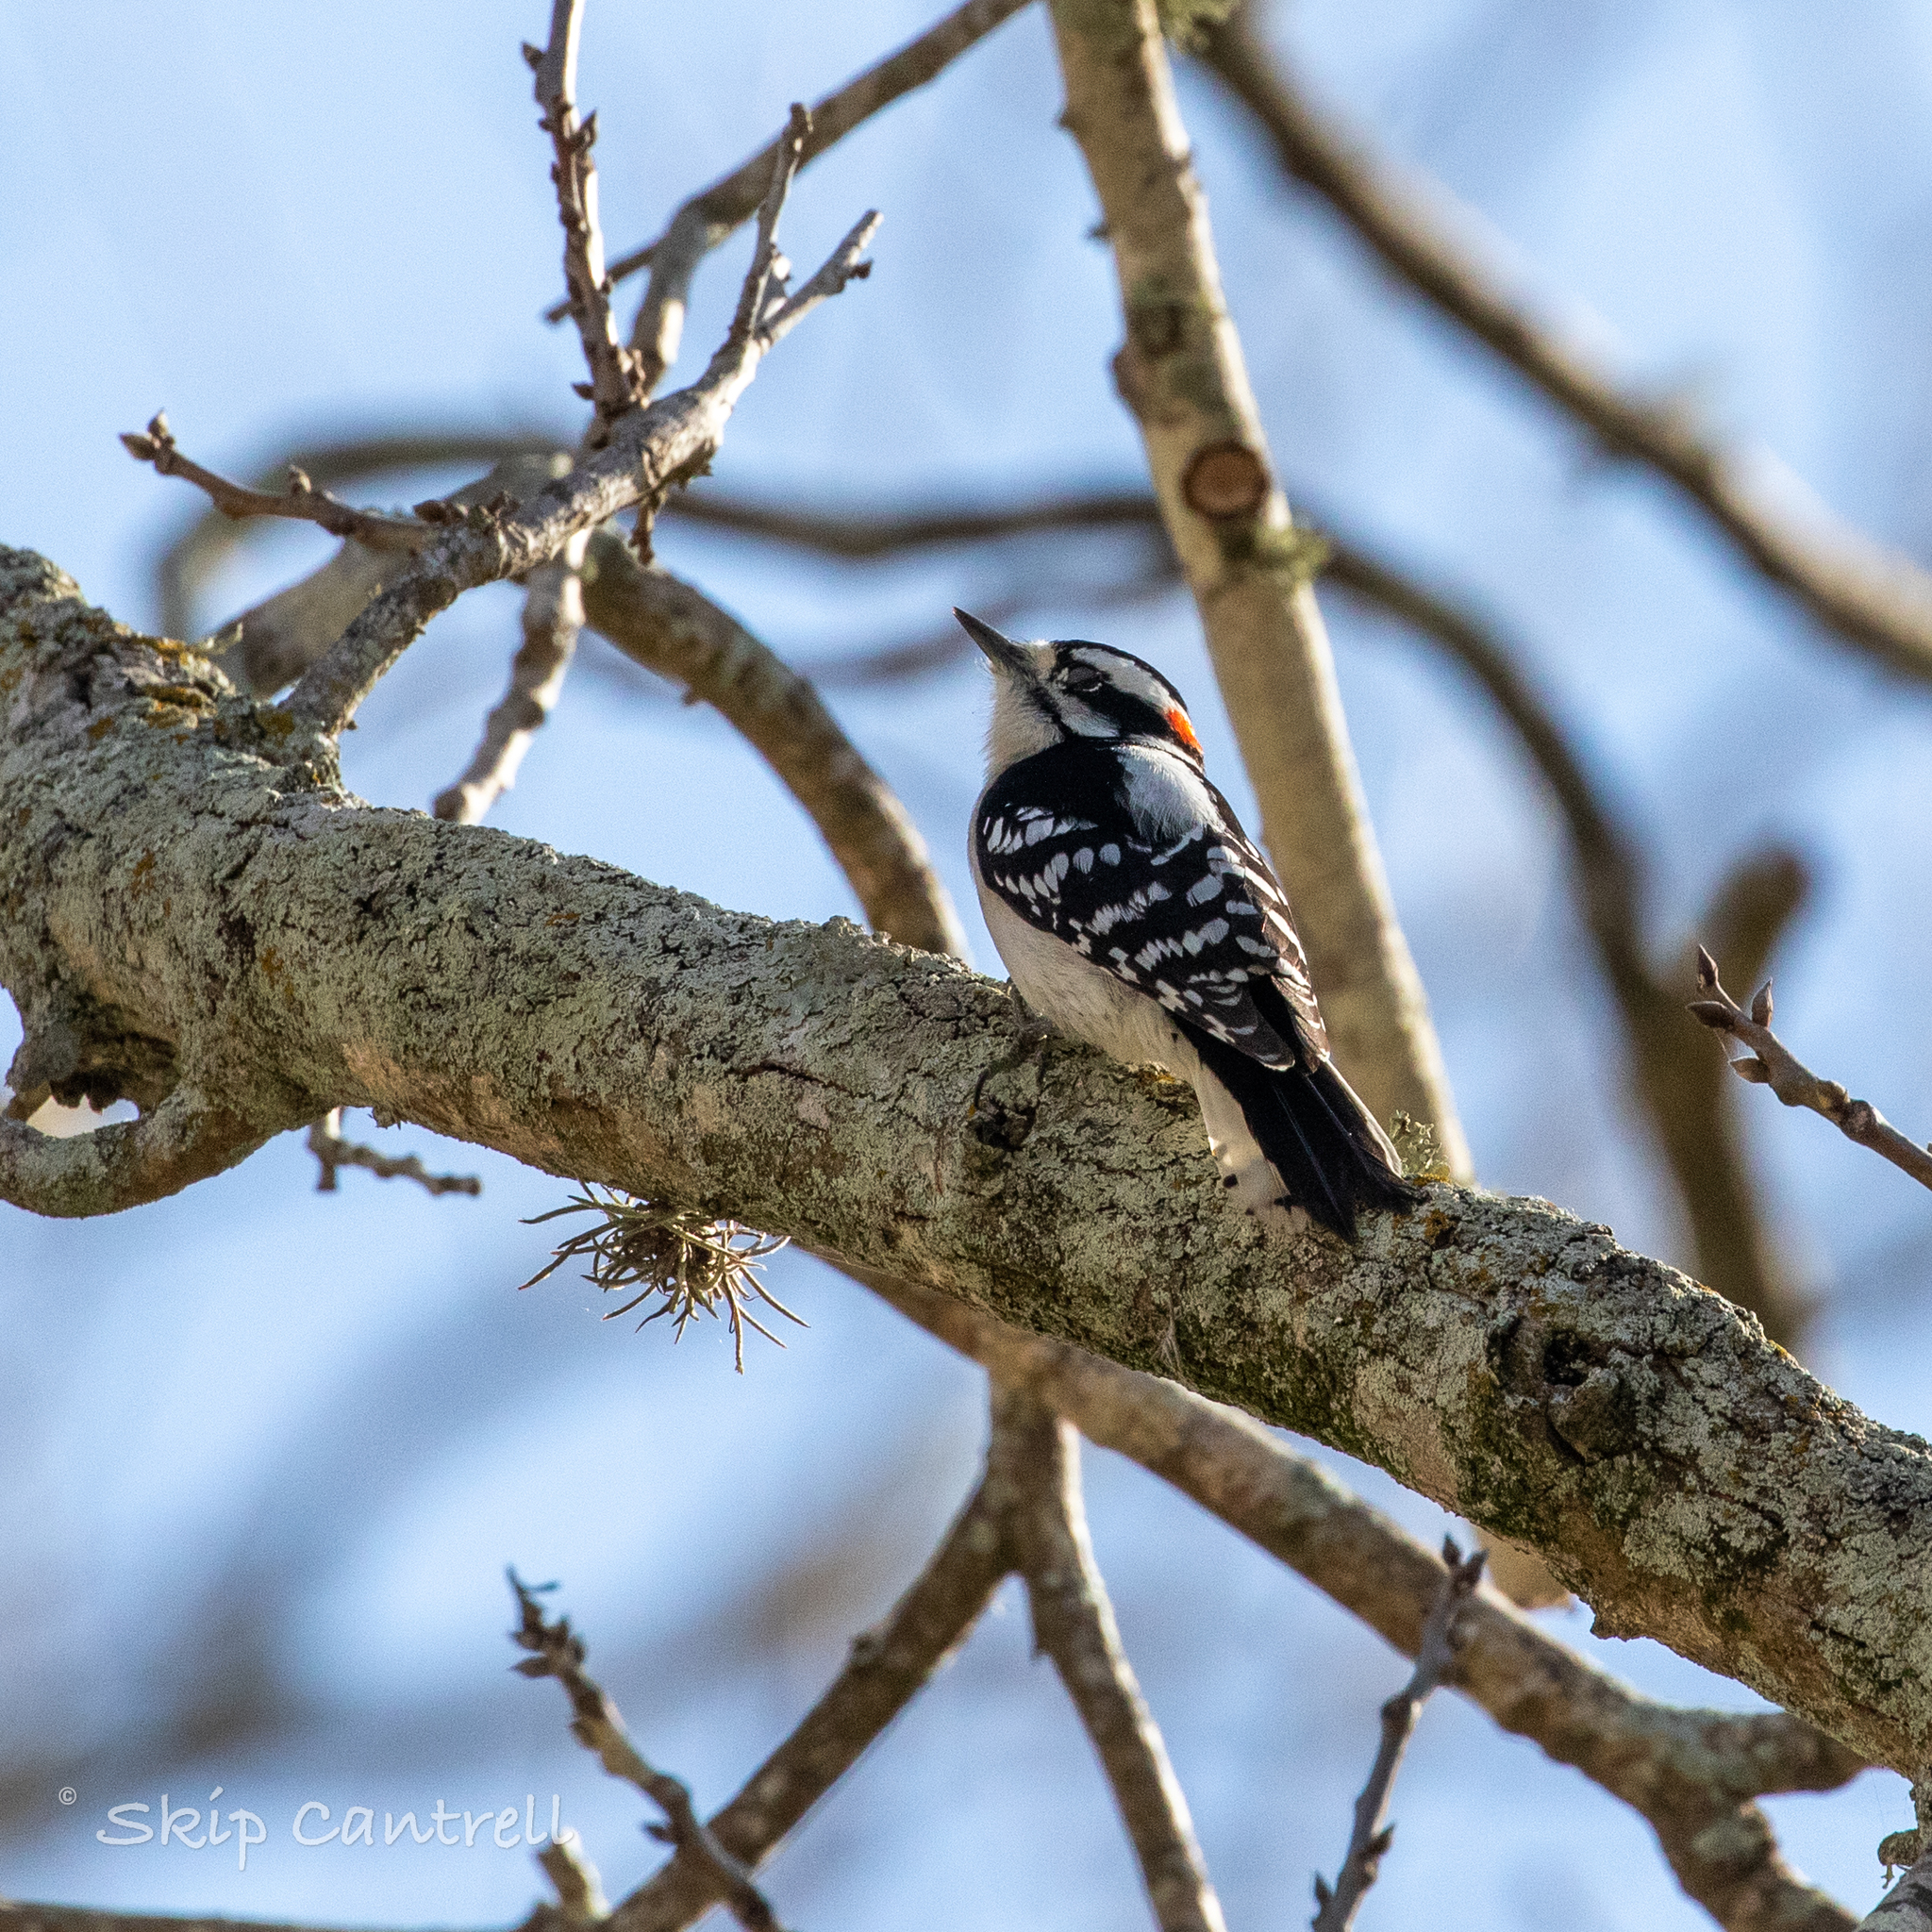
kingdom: Animalia
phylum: Chordata
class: Aves
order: Piciformes
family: Picidae
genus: Dryobates
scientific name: Dryobates pubescens
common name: Downy woodpecker
